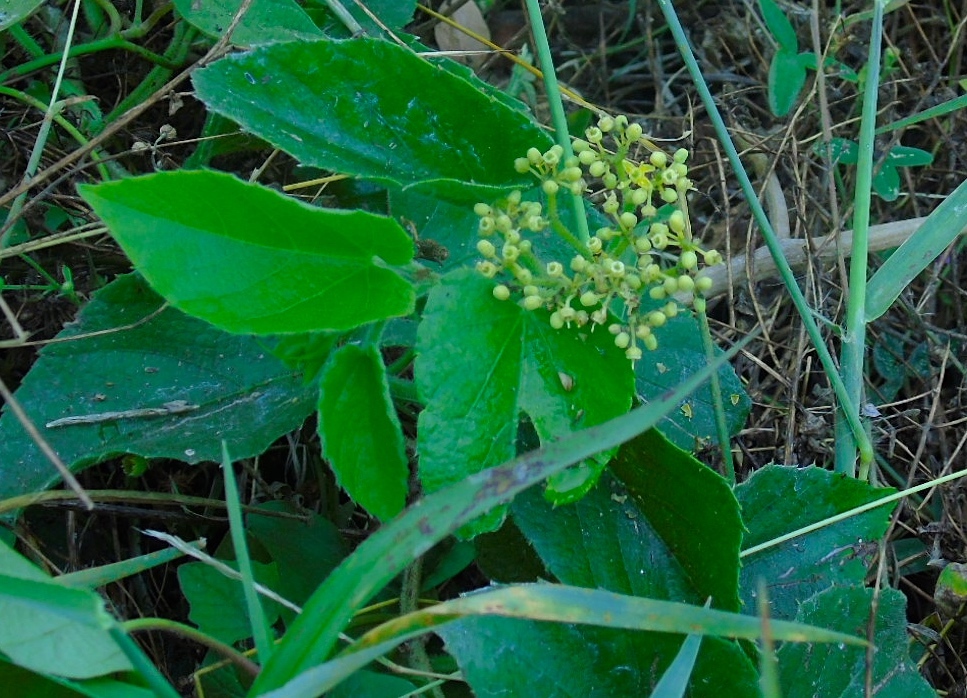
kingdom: Plantae
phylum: Tracheophyta
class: Magnoliopsida
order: Vitales
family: Vitaceae
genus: Cissus
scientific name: Cissus verticillata
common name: Princess vine
